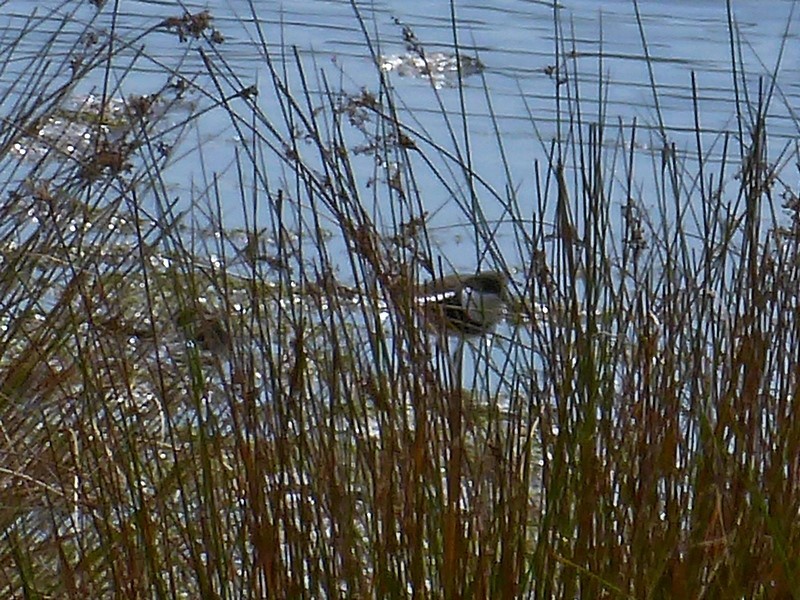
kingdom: Animalia
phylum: Chordata
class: Aves
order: Charadriiformes
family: Charadriidae
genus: Erythrogonys
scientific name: Erythrogonys cinctus
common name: Red-kneed dotterel
